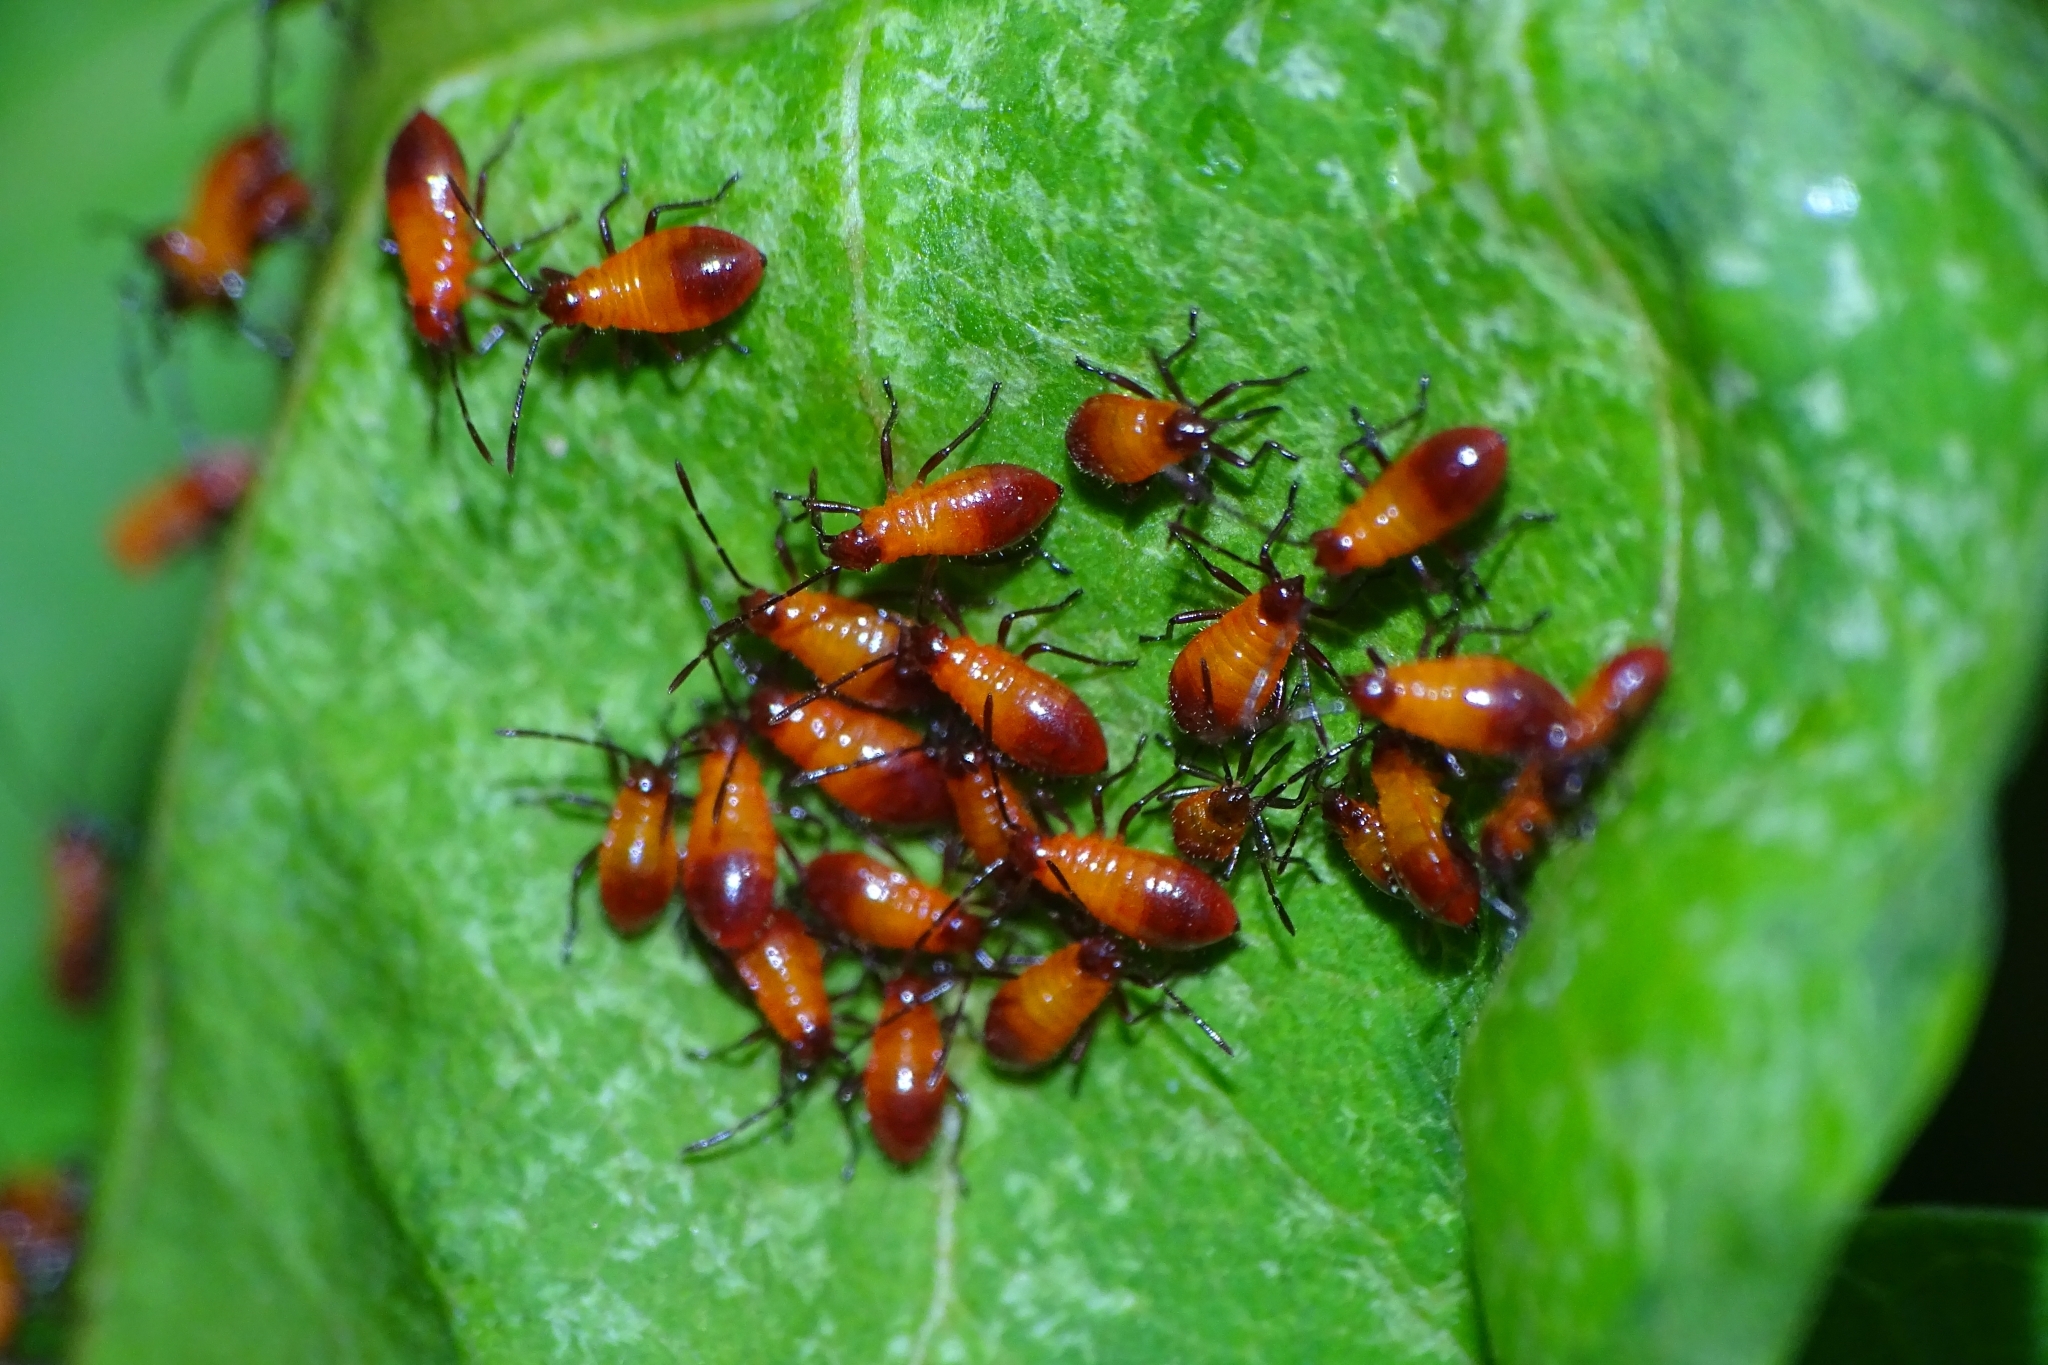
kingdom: Animalia
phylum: Arthropoda
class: Insecta
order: Hemiptera
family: Lygaeidae
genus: Oncopeltus
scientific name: Oncopeltus nigriceps
